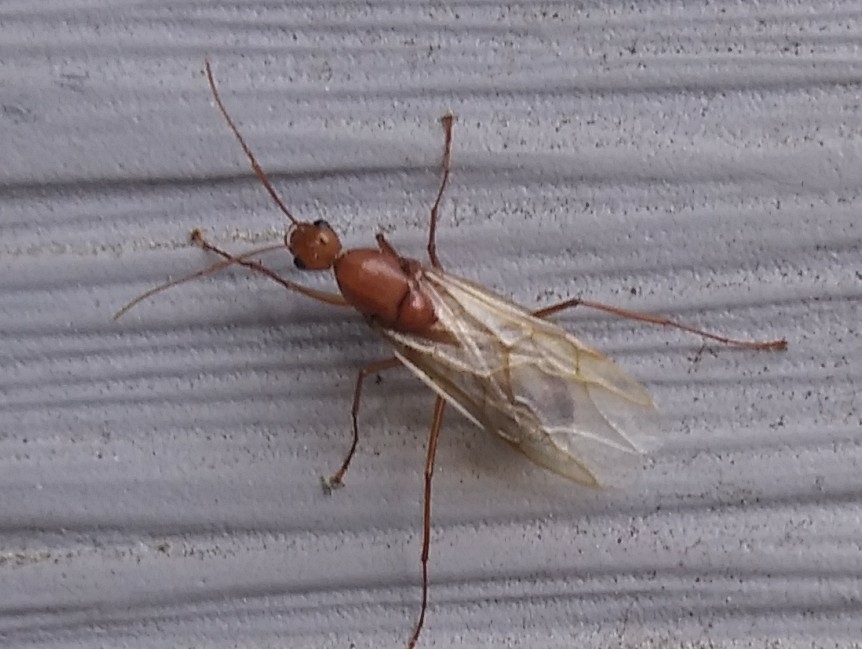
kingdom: Animalia
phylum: Arthropoda
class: Insecta
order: Hymenoptera
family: Formicidae
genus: Camponotus
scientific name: Camponotus castaneus
